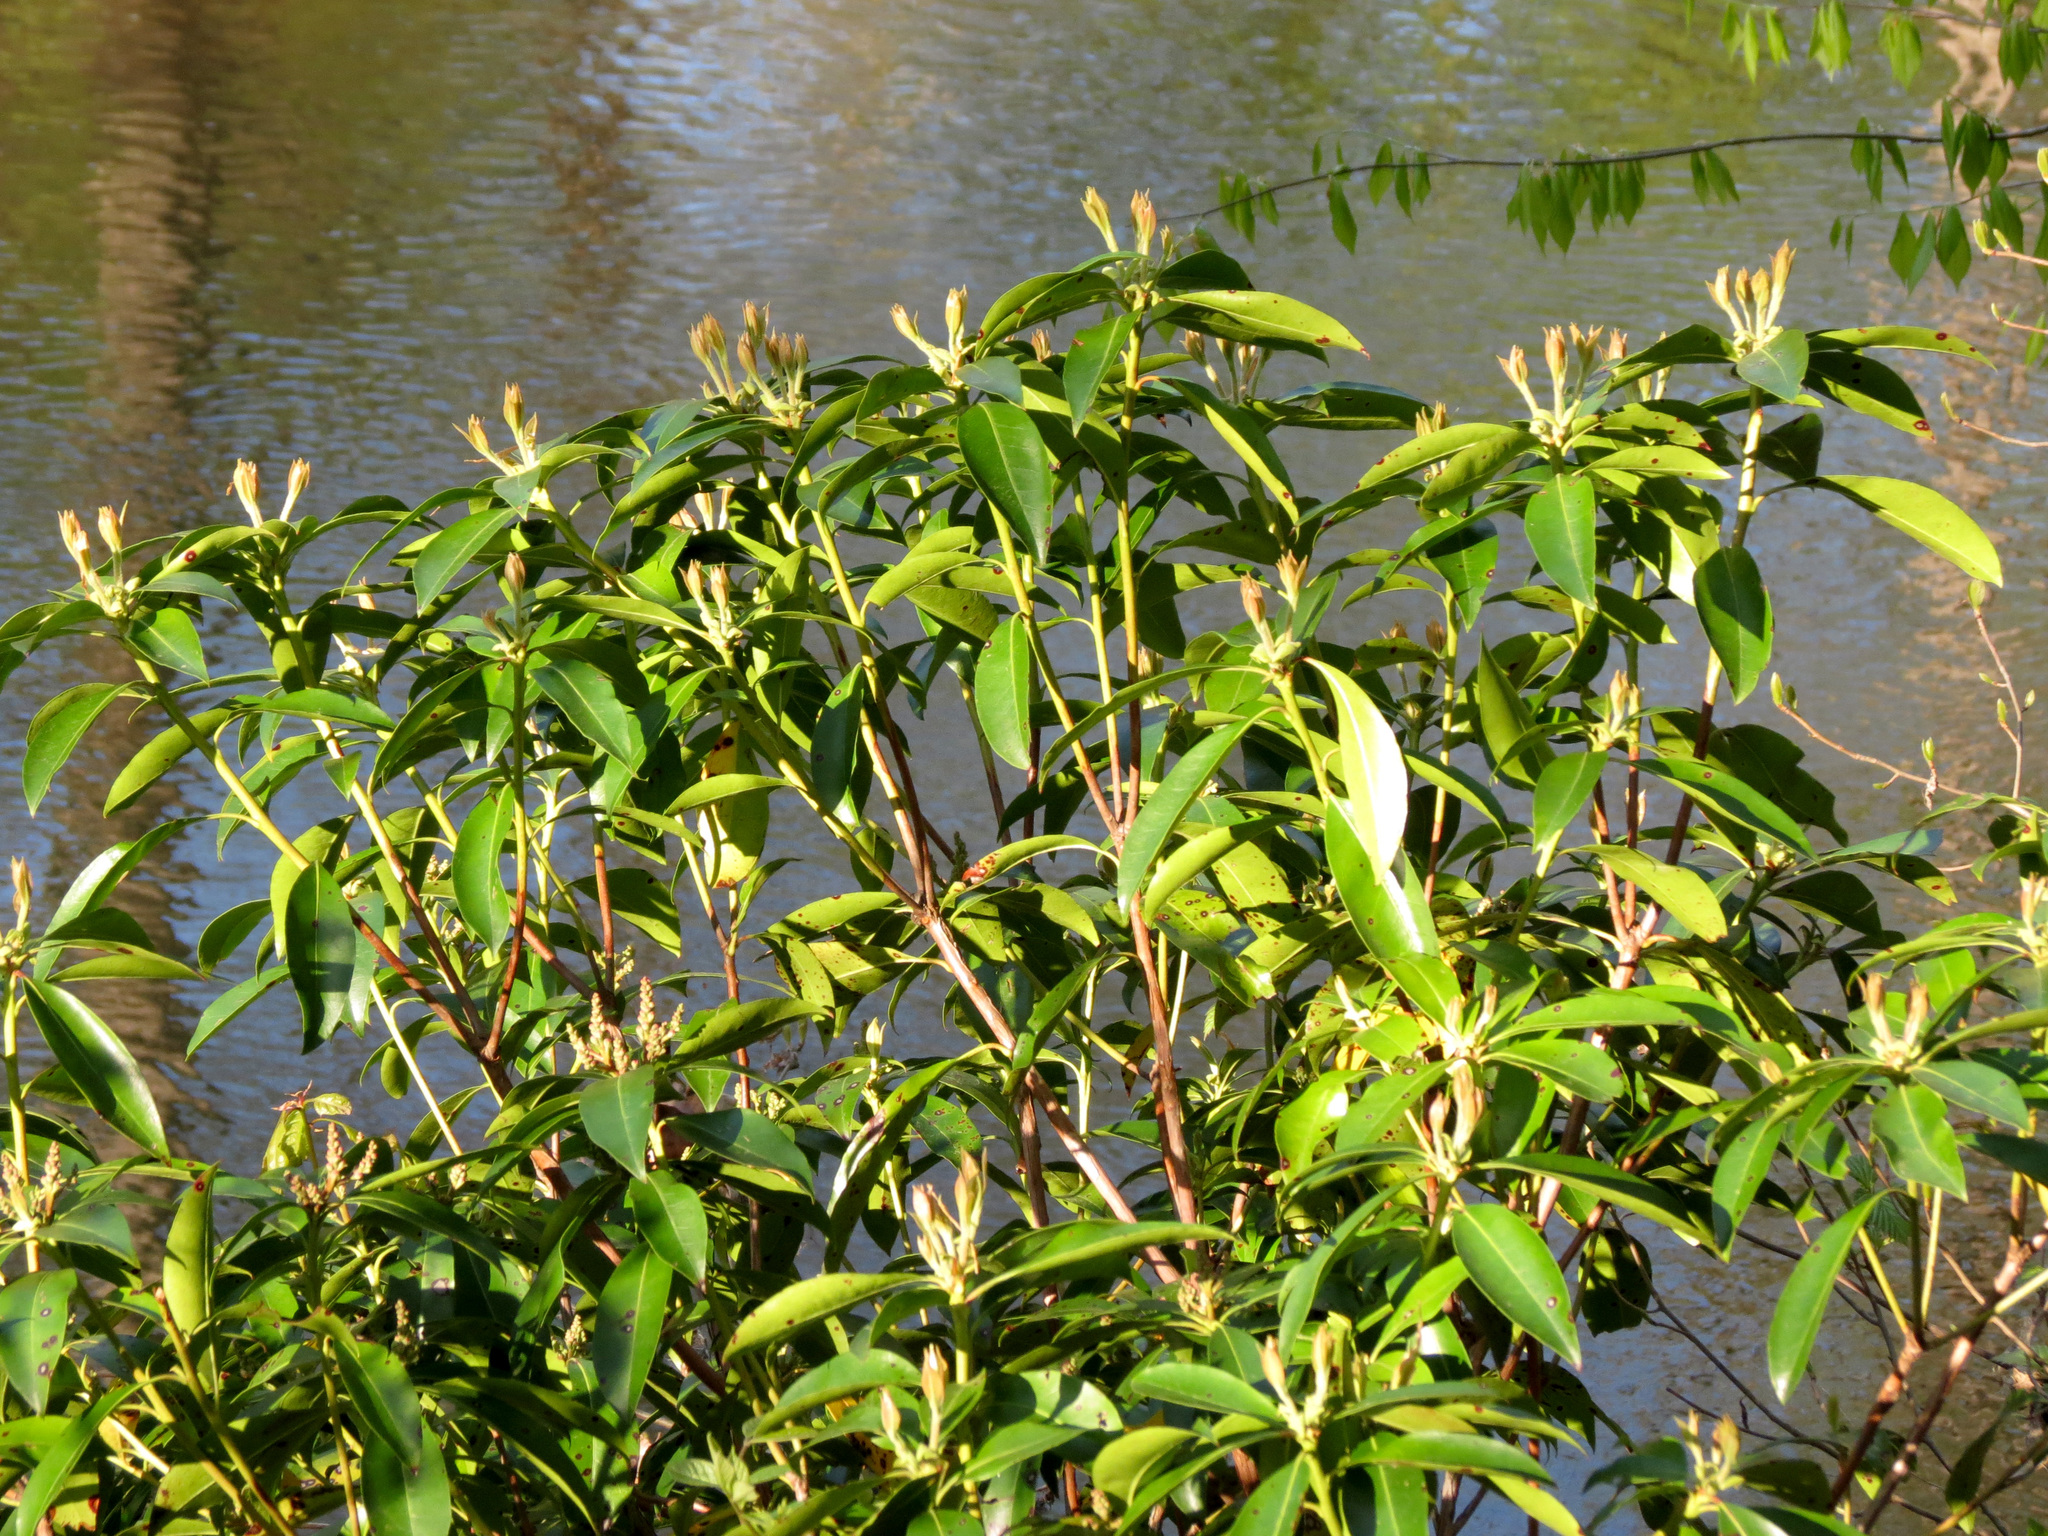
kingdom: Plantae
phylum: Tracheophyta
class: Magnoliopsida
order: Ericales
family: Ericaceae
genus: Kalmia
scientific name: Kalmia latifolia
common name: Mountain-laurel
